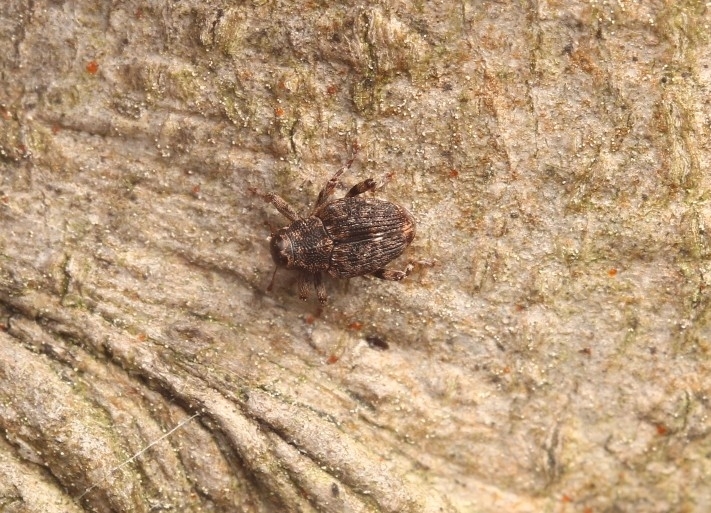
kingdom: Animalia
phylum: Arthropoda
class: Insecta
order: Coleoptera
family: Curculionidae
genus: Lechriops
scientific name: Lechriops oculatus
